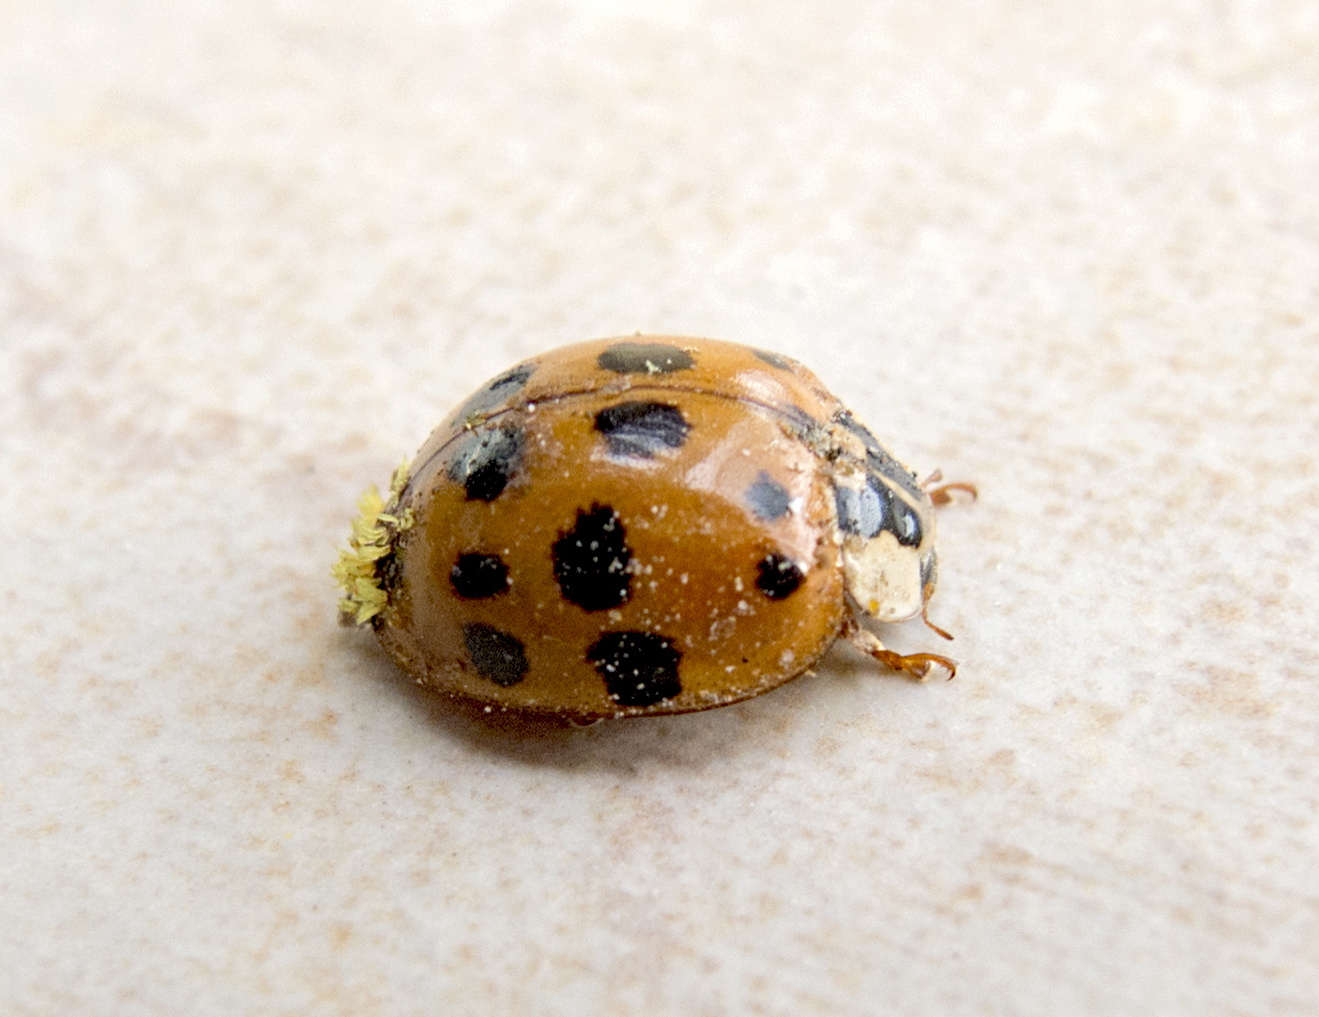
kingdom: Animalia
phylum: Arthropoda
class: Insecta
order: Coleoptera
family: Coccinellidae
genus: Harmonia
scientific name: Harmonia axyridis
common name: Harlequin ladybird
